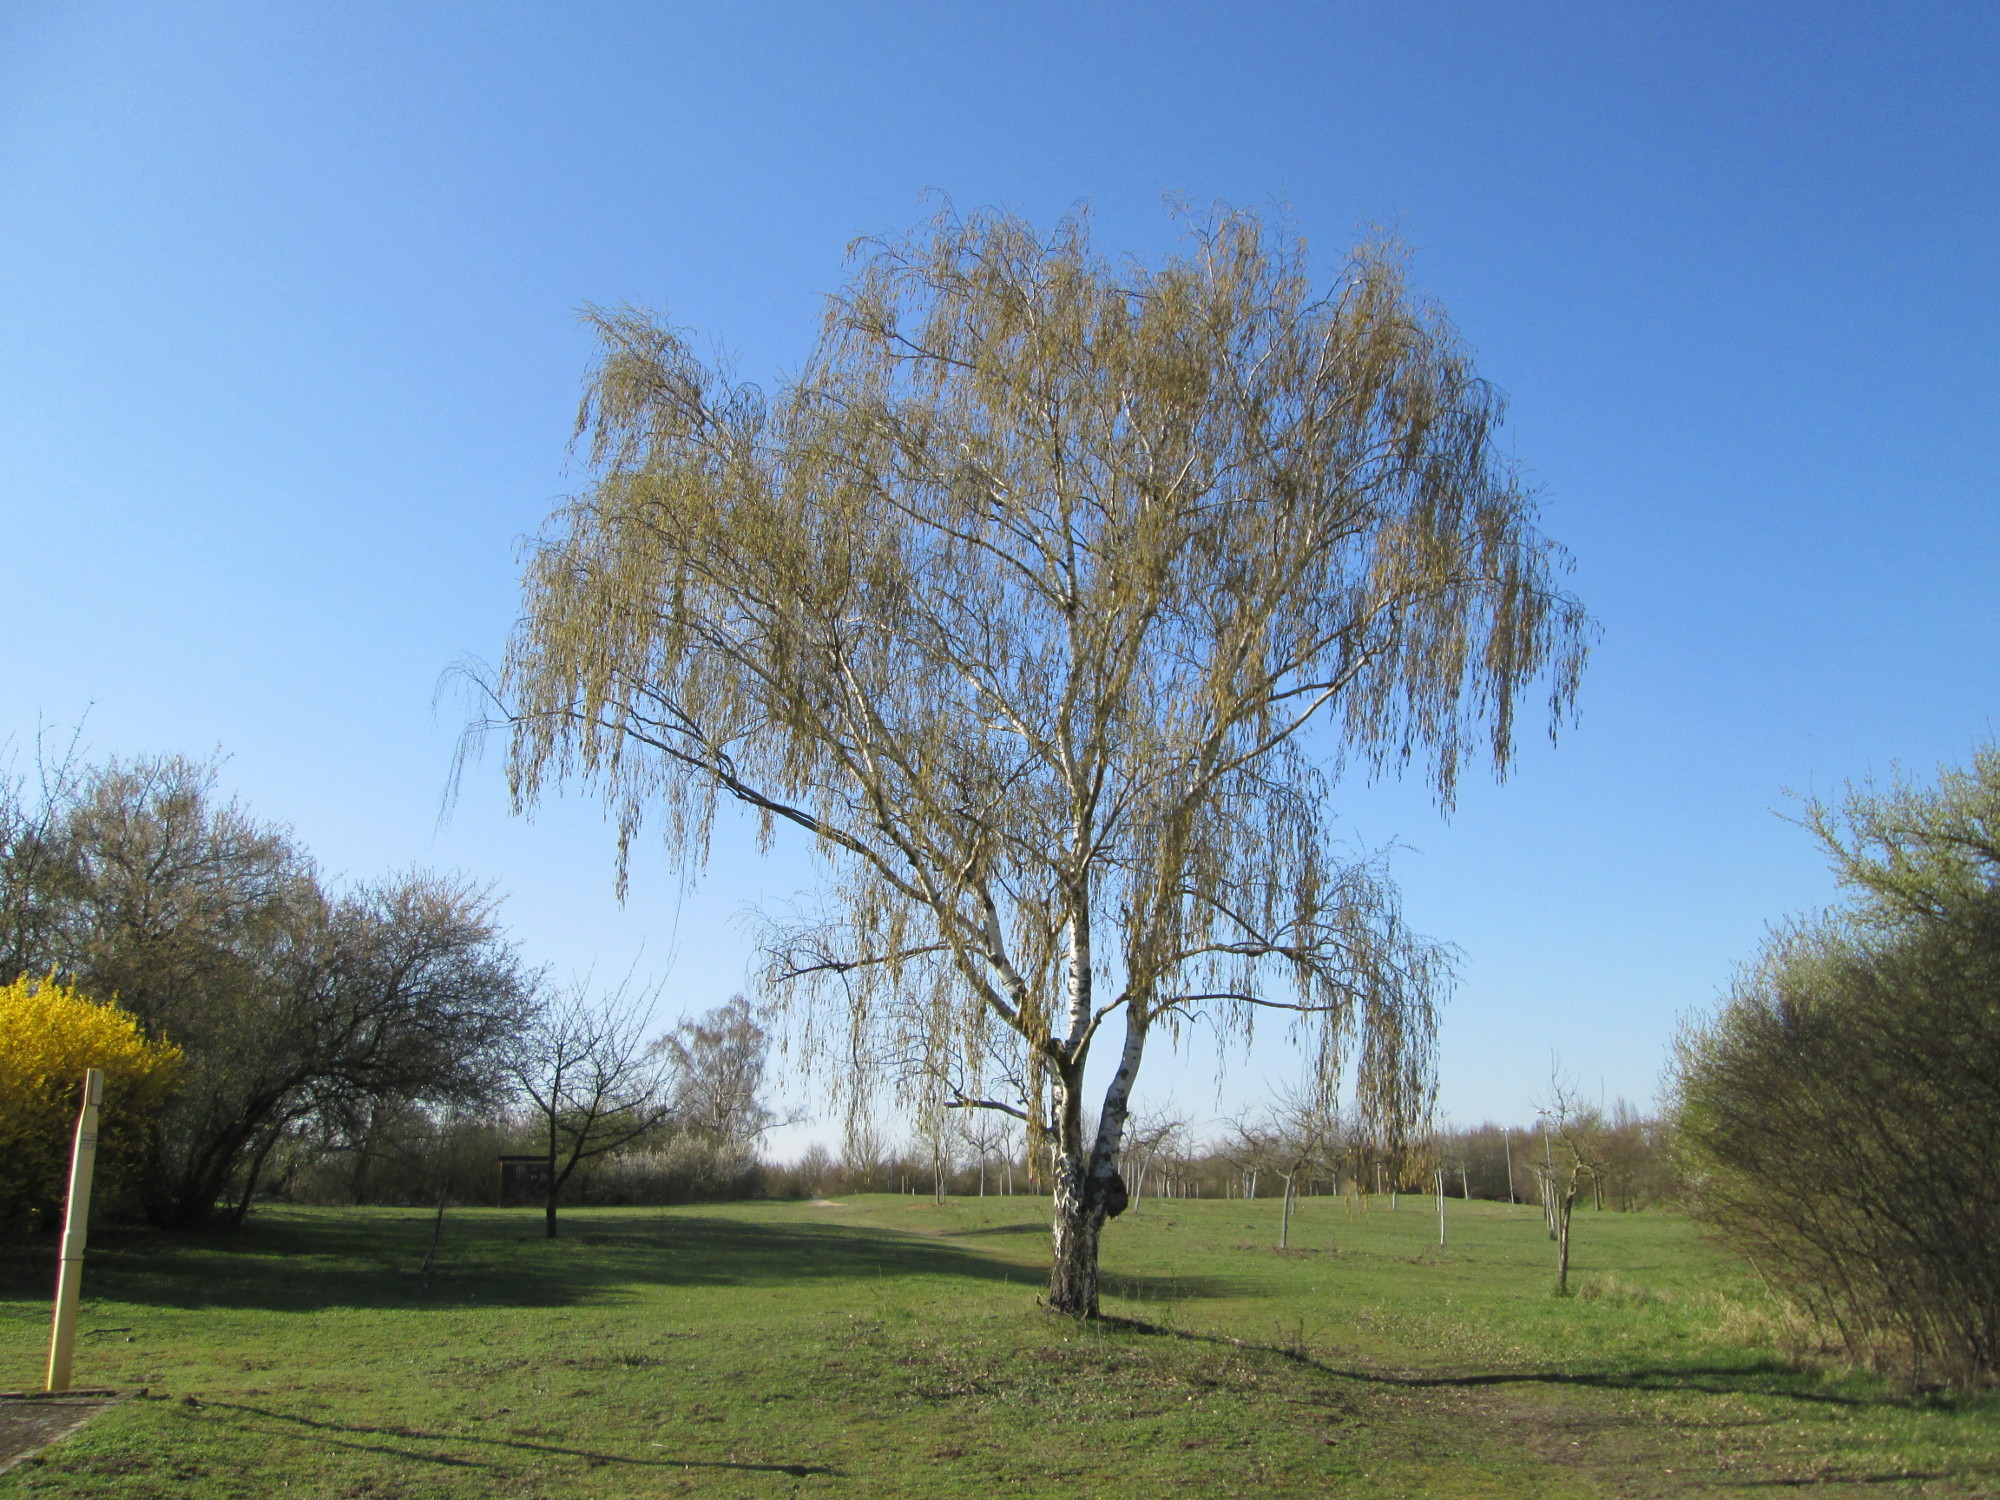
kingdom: Plantae
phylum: Tracheophyta
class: Magnoliopsida
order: Fagales
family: Betulaceae
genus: Betula
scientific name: Betula pendula
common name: Silver birch
